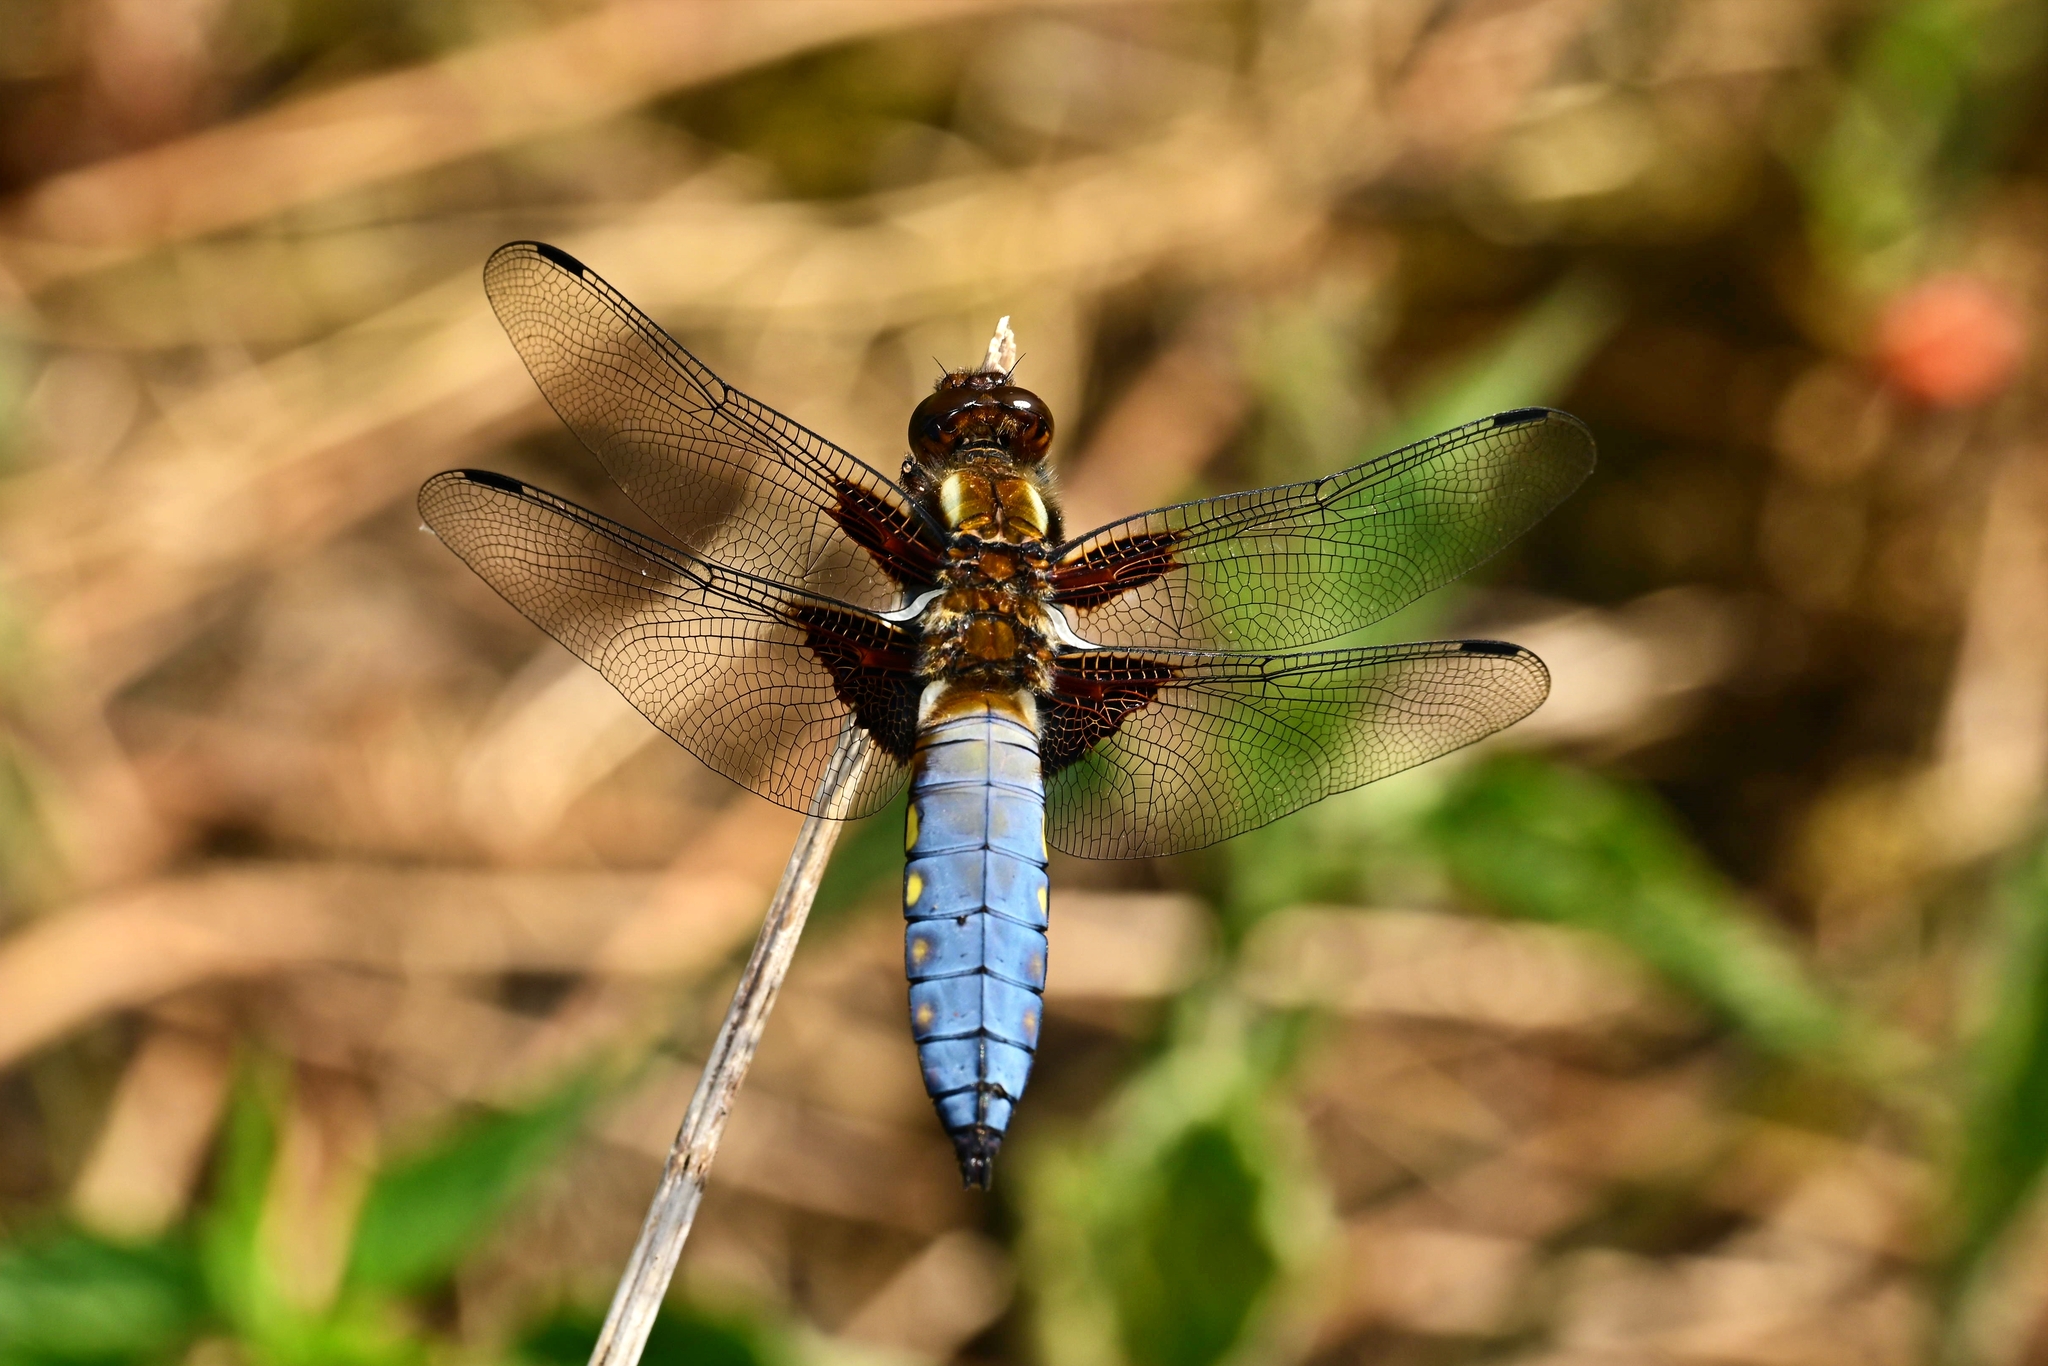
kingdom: Animalia
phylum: Arthropoda
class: Insecta
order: Odonata
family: Libellulidae
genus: Libellula
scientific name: Libellula depressa
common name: Broad-bodied chaser
